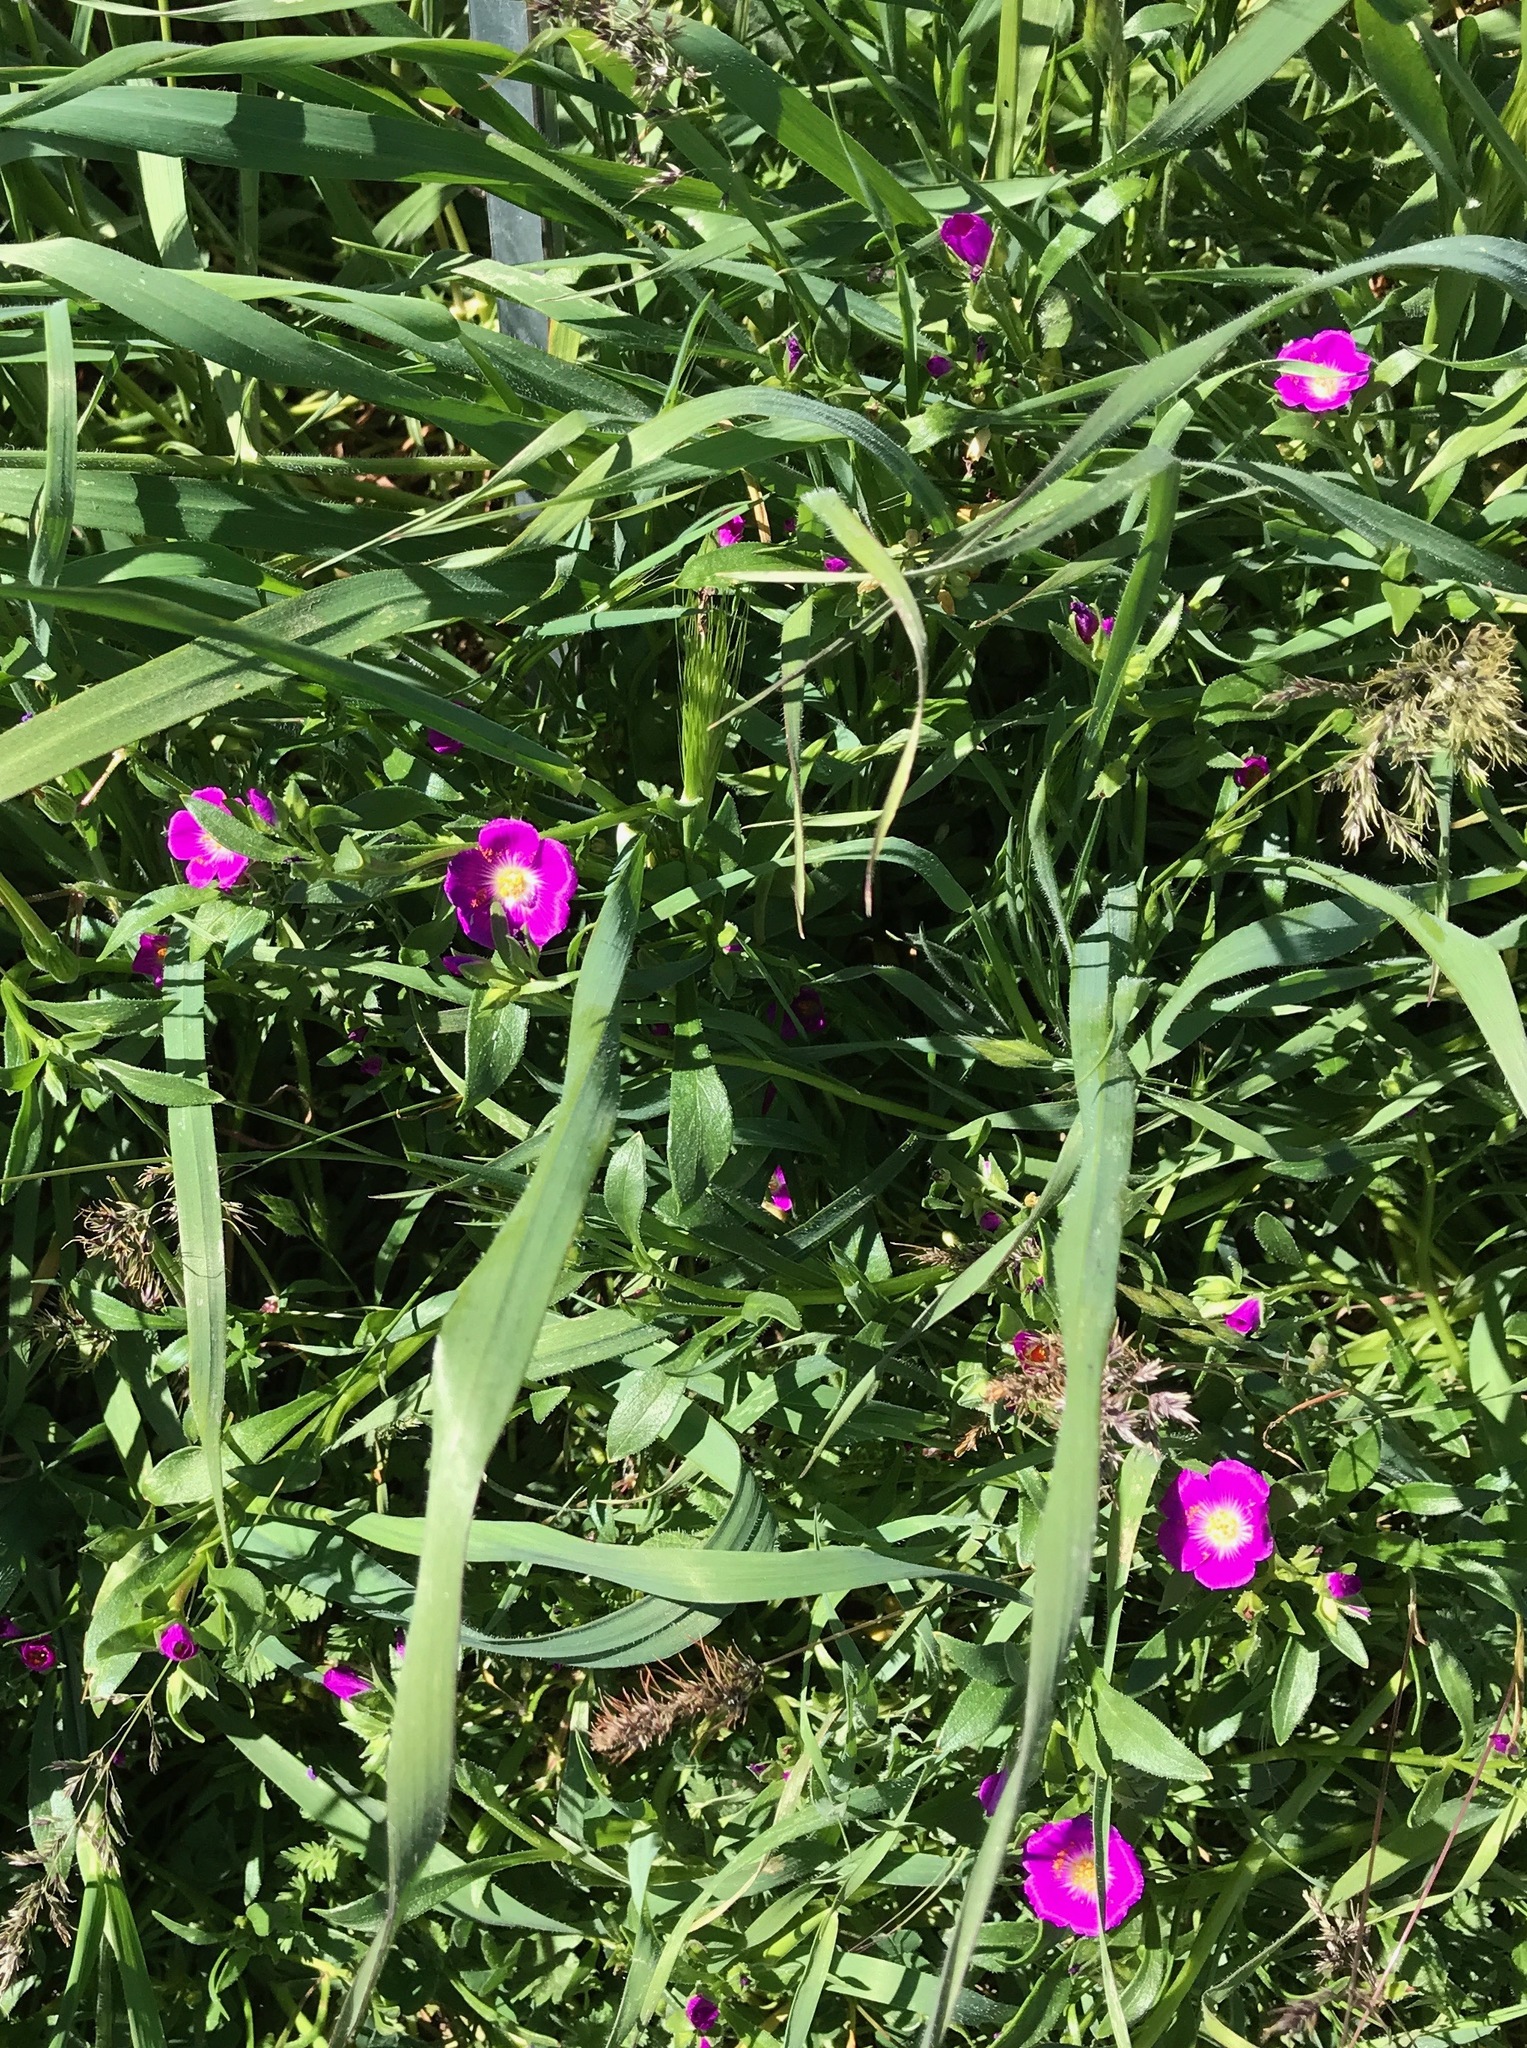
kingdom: Plantae
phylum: Tracheophyta
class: Magnoliopsida
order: Caryophyllales
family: Montiaceae
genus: Calandrinia
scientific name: Calandrinia menziesii
